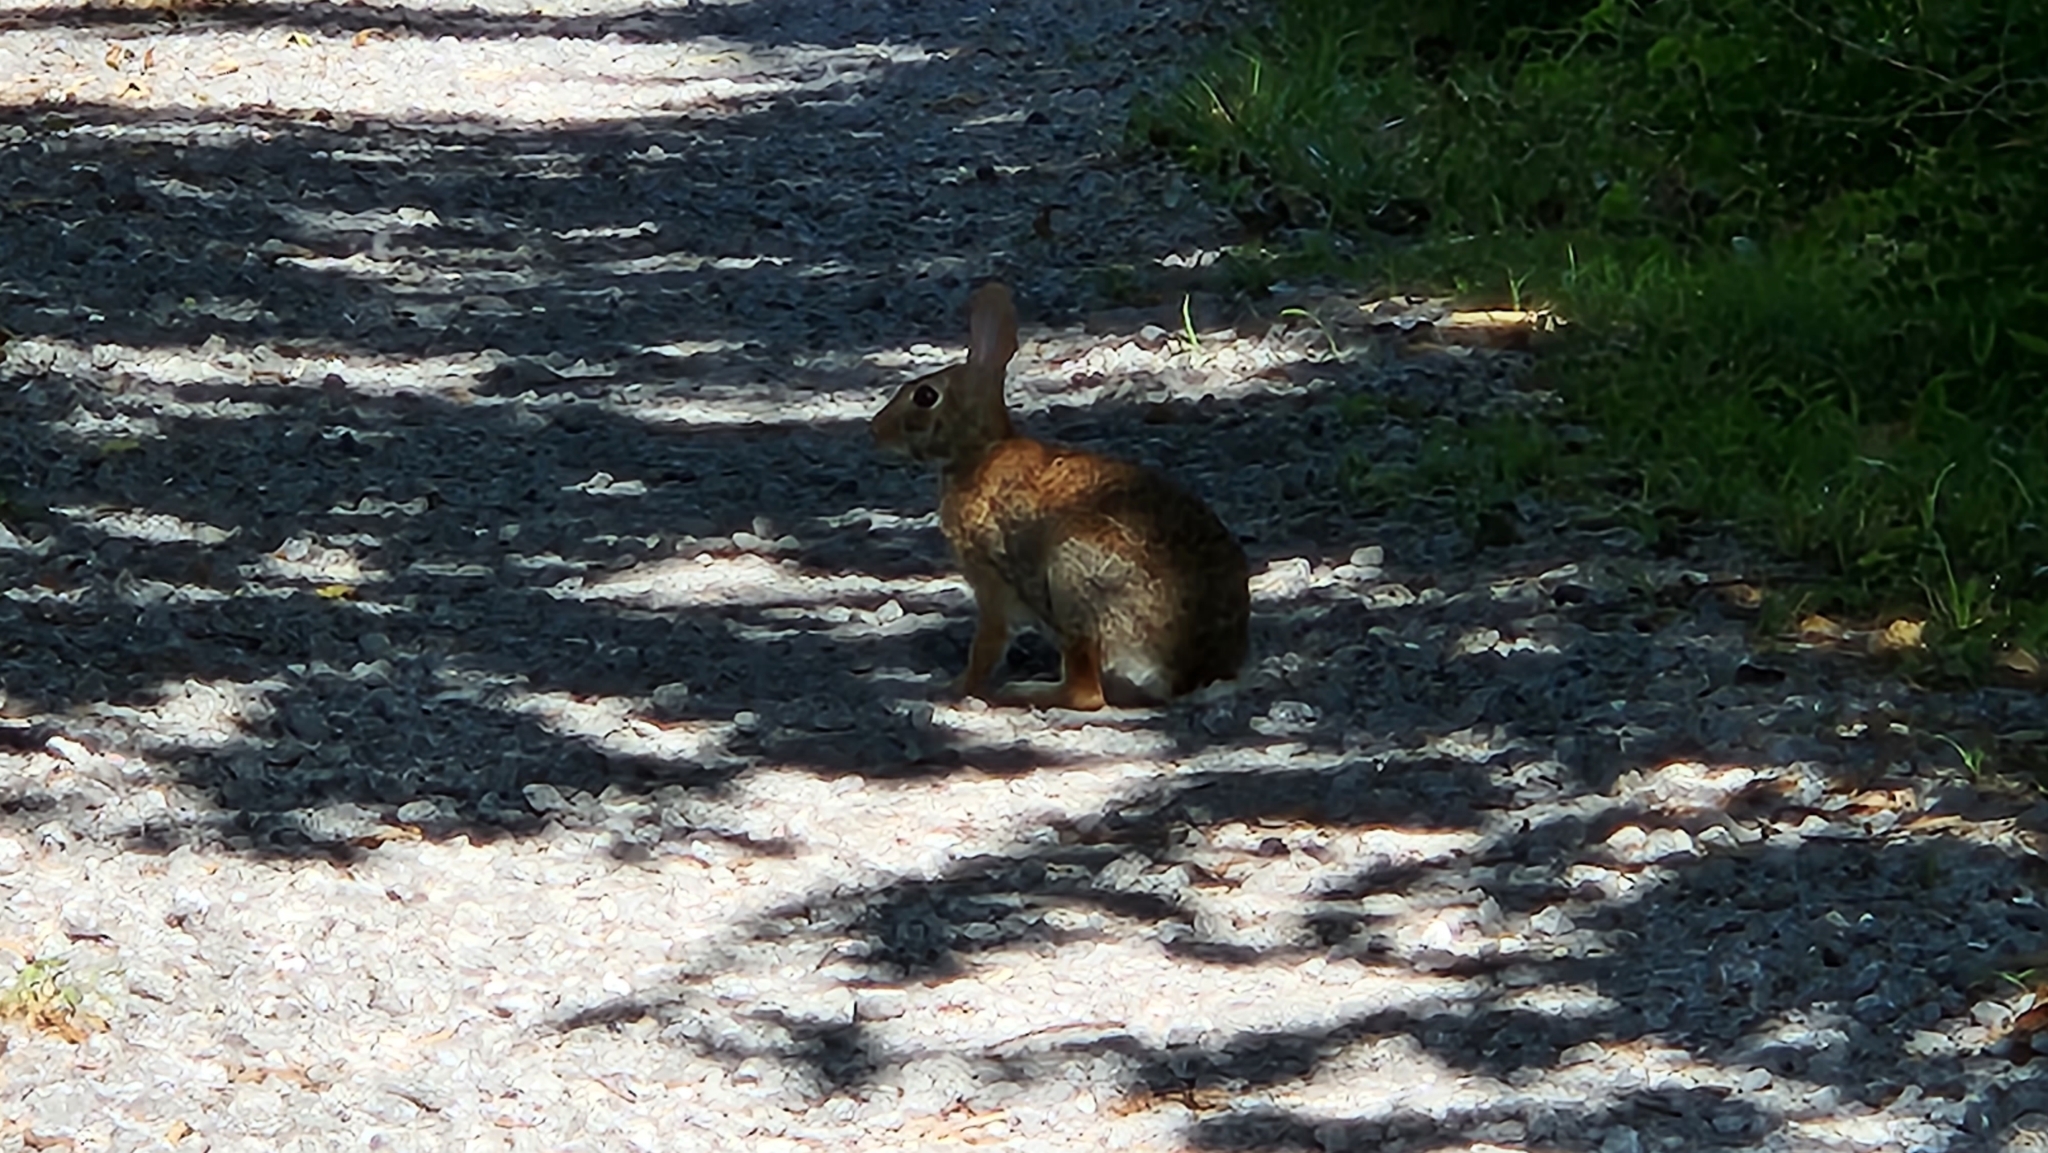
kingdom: Animalia
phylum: Chordata
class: Mammalia
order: Lagomorpha
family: Leporidae
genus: Sylvilagus
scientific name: Sylvilagus floridanus
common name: Eastern cottontail
